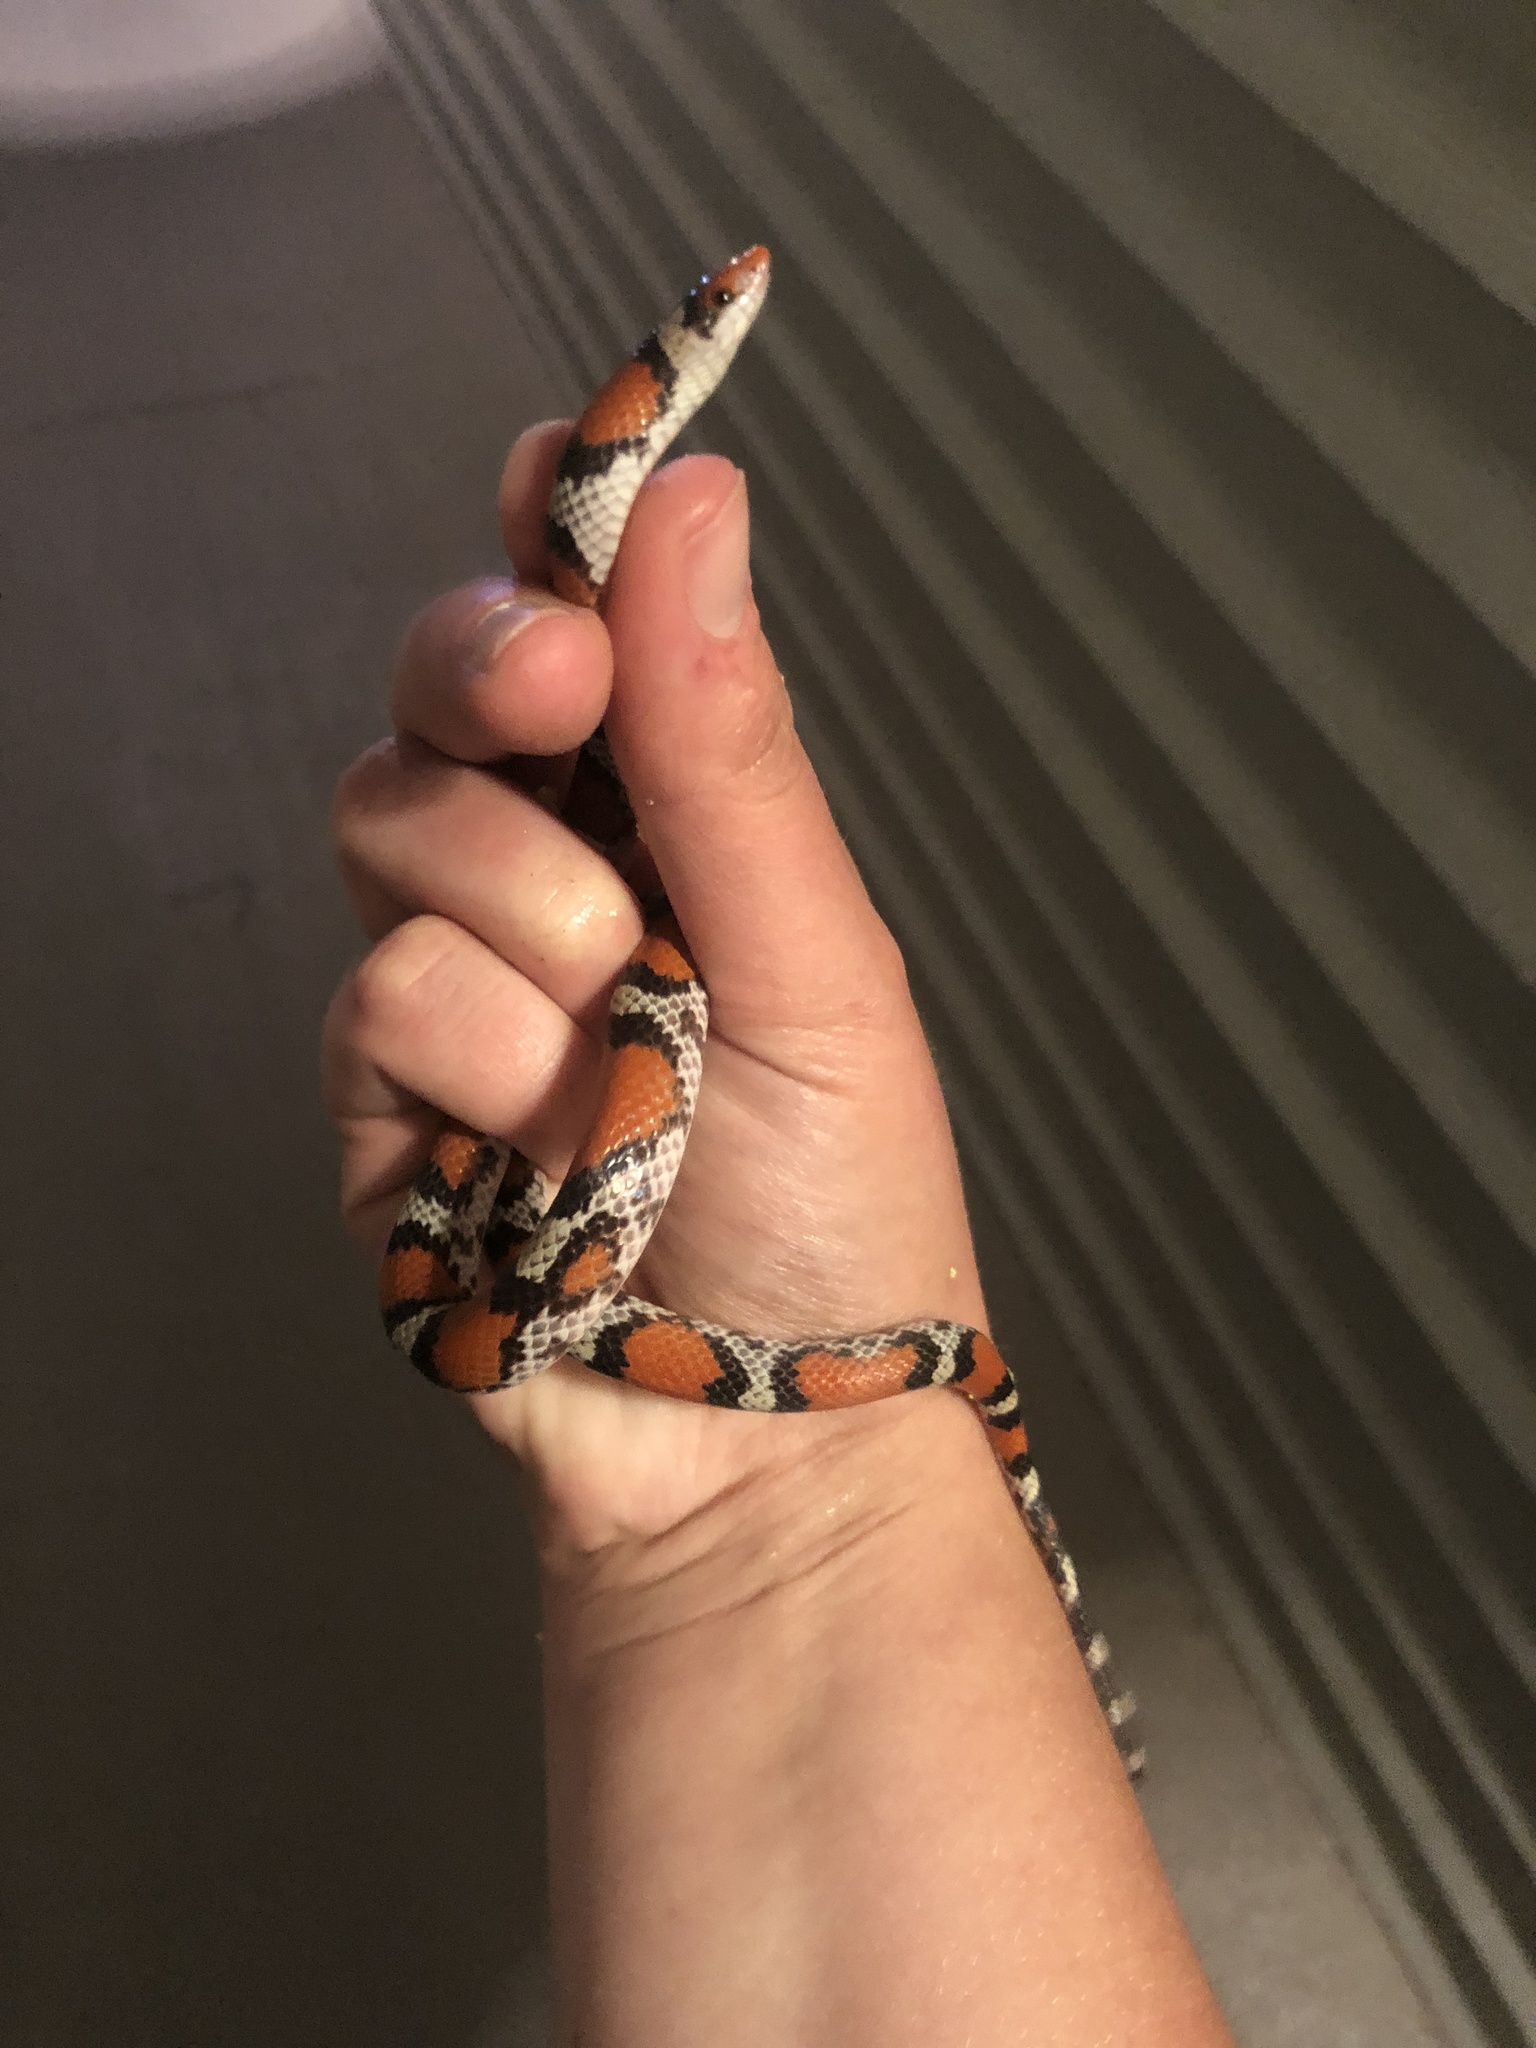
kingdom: Animalia
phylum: Chordata
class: Squamata
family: Colubridae
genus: Cemophora
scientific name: Cemophora coccinea
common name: Scarlet snake
